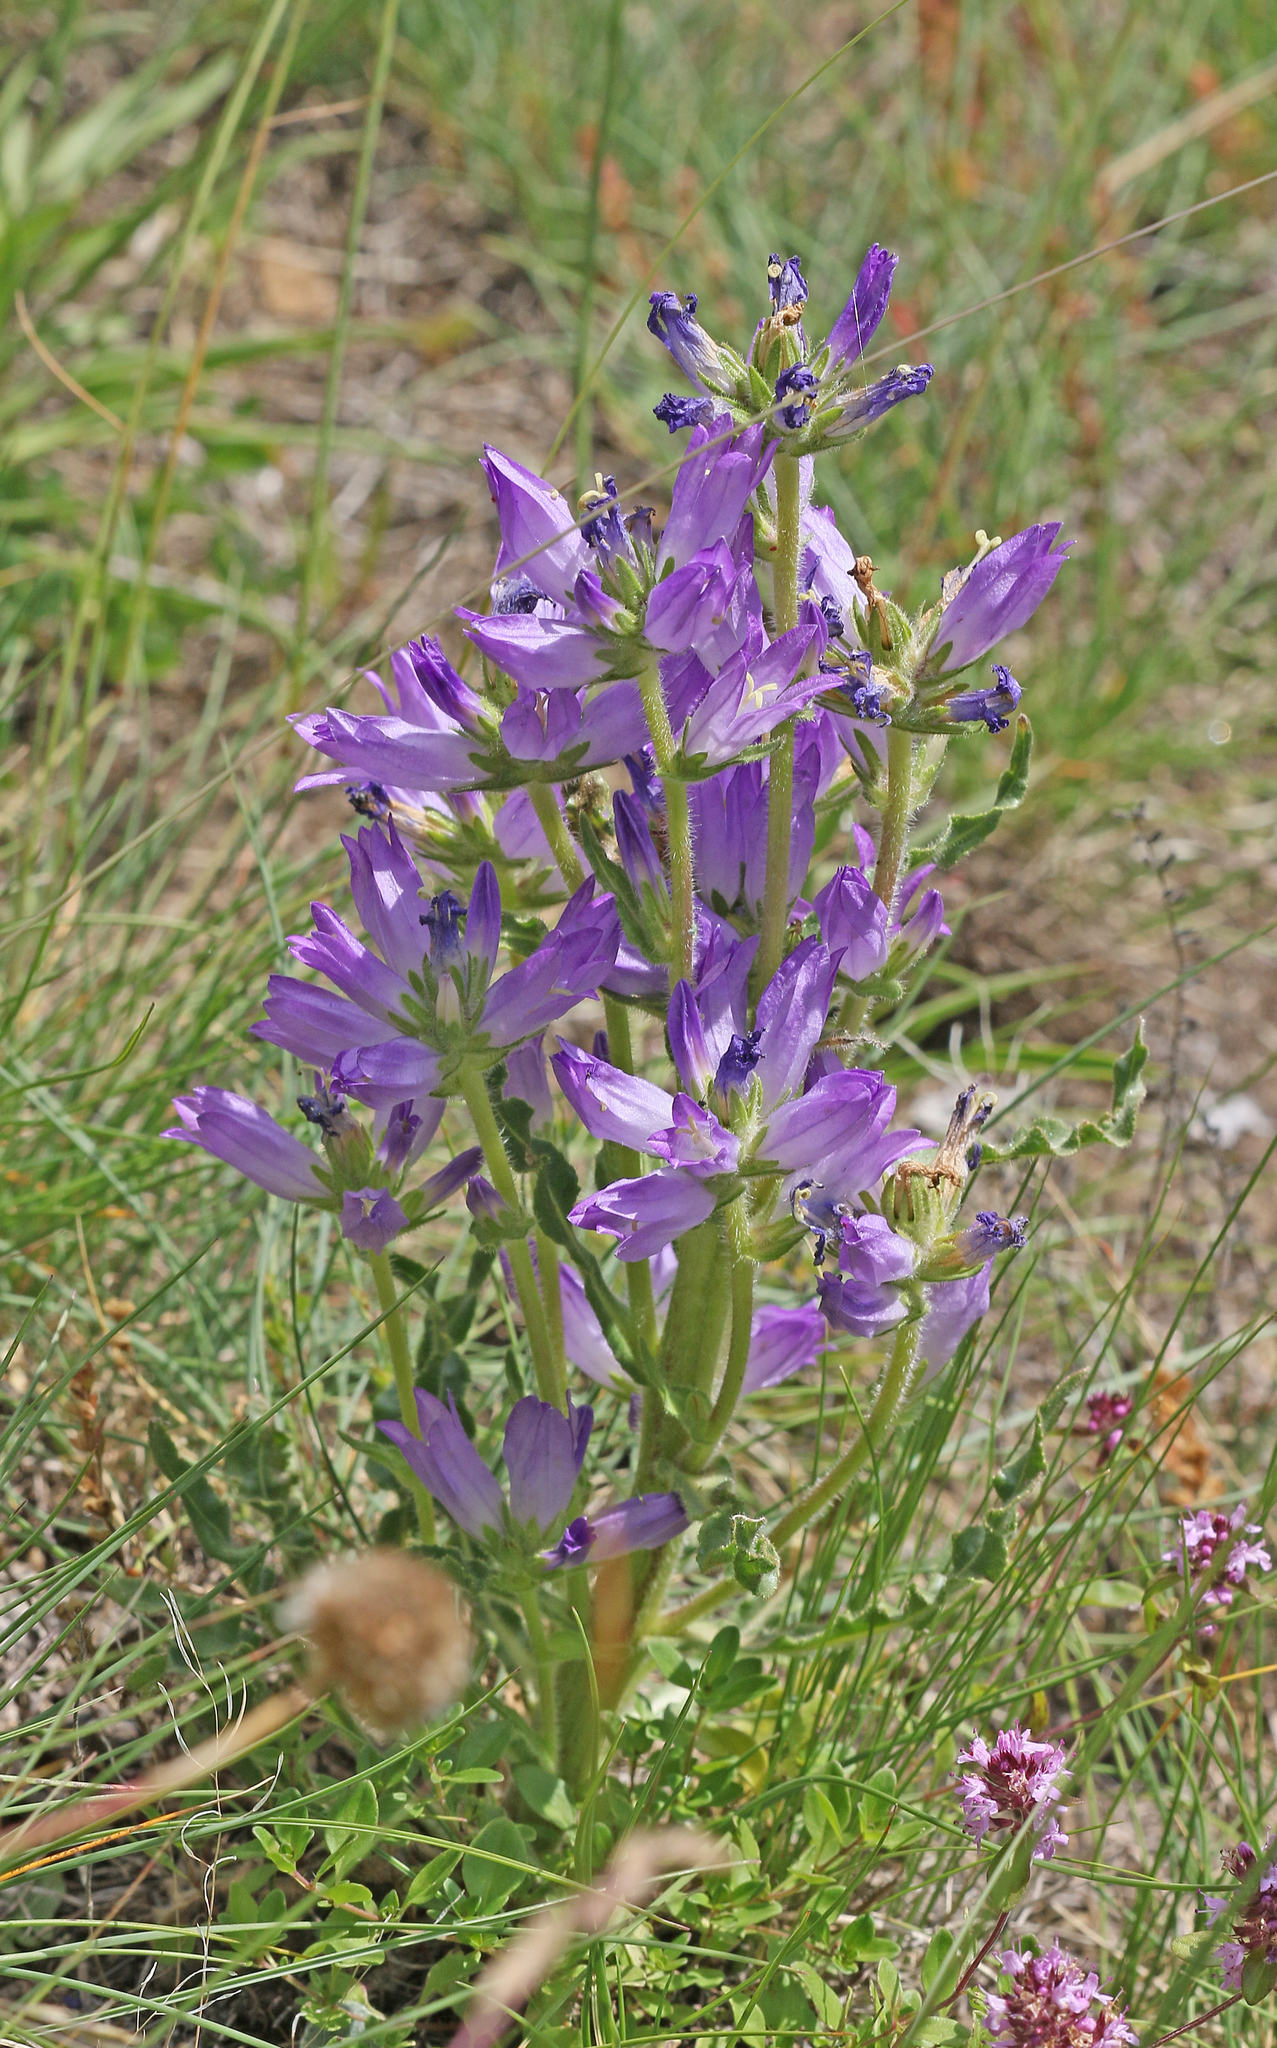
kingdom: Plantae
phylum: Tracheophyta
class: Magnoliopsida
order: Asterales
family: Campanulaceae
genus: Campanula
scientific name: Campanula spicata
